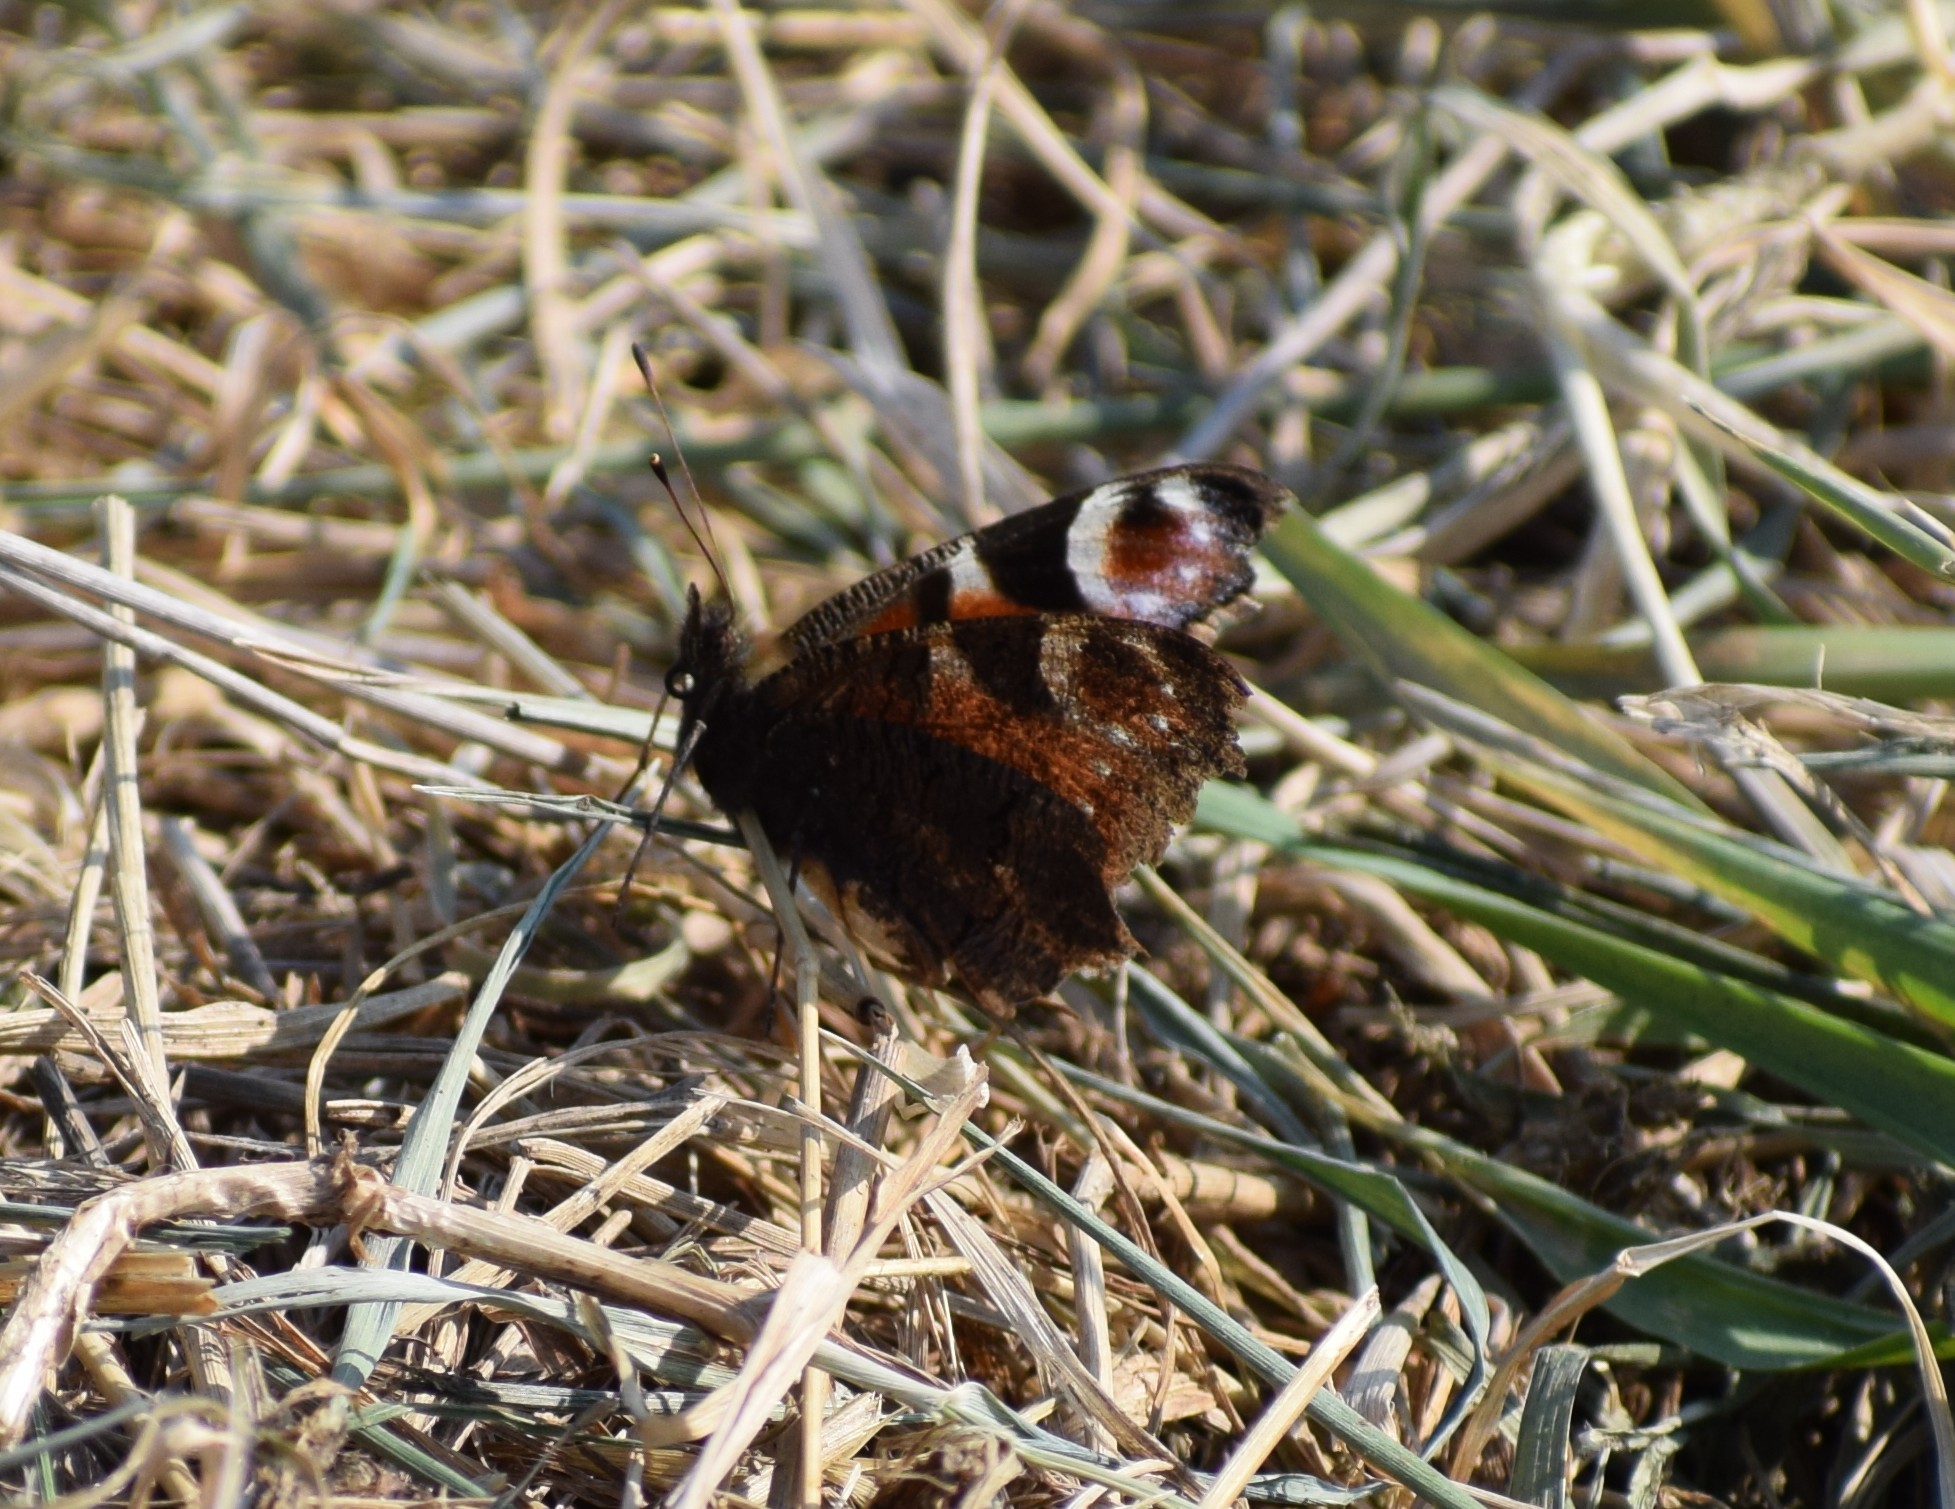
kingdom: Animalia
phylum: Arthropoda
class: Insecta
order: Lepidoptera
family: Nymphalidae
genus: Aglais
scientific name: Aglais io
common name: Peacock
